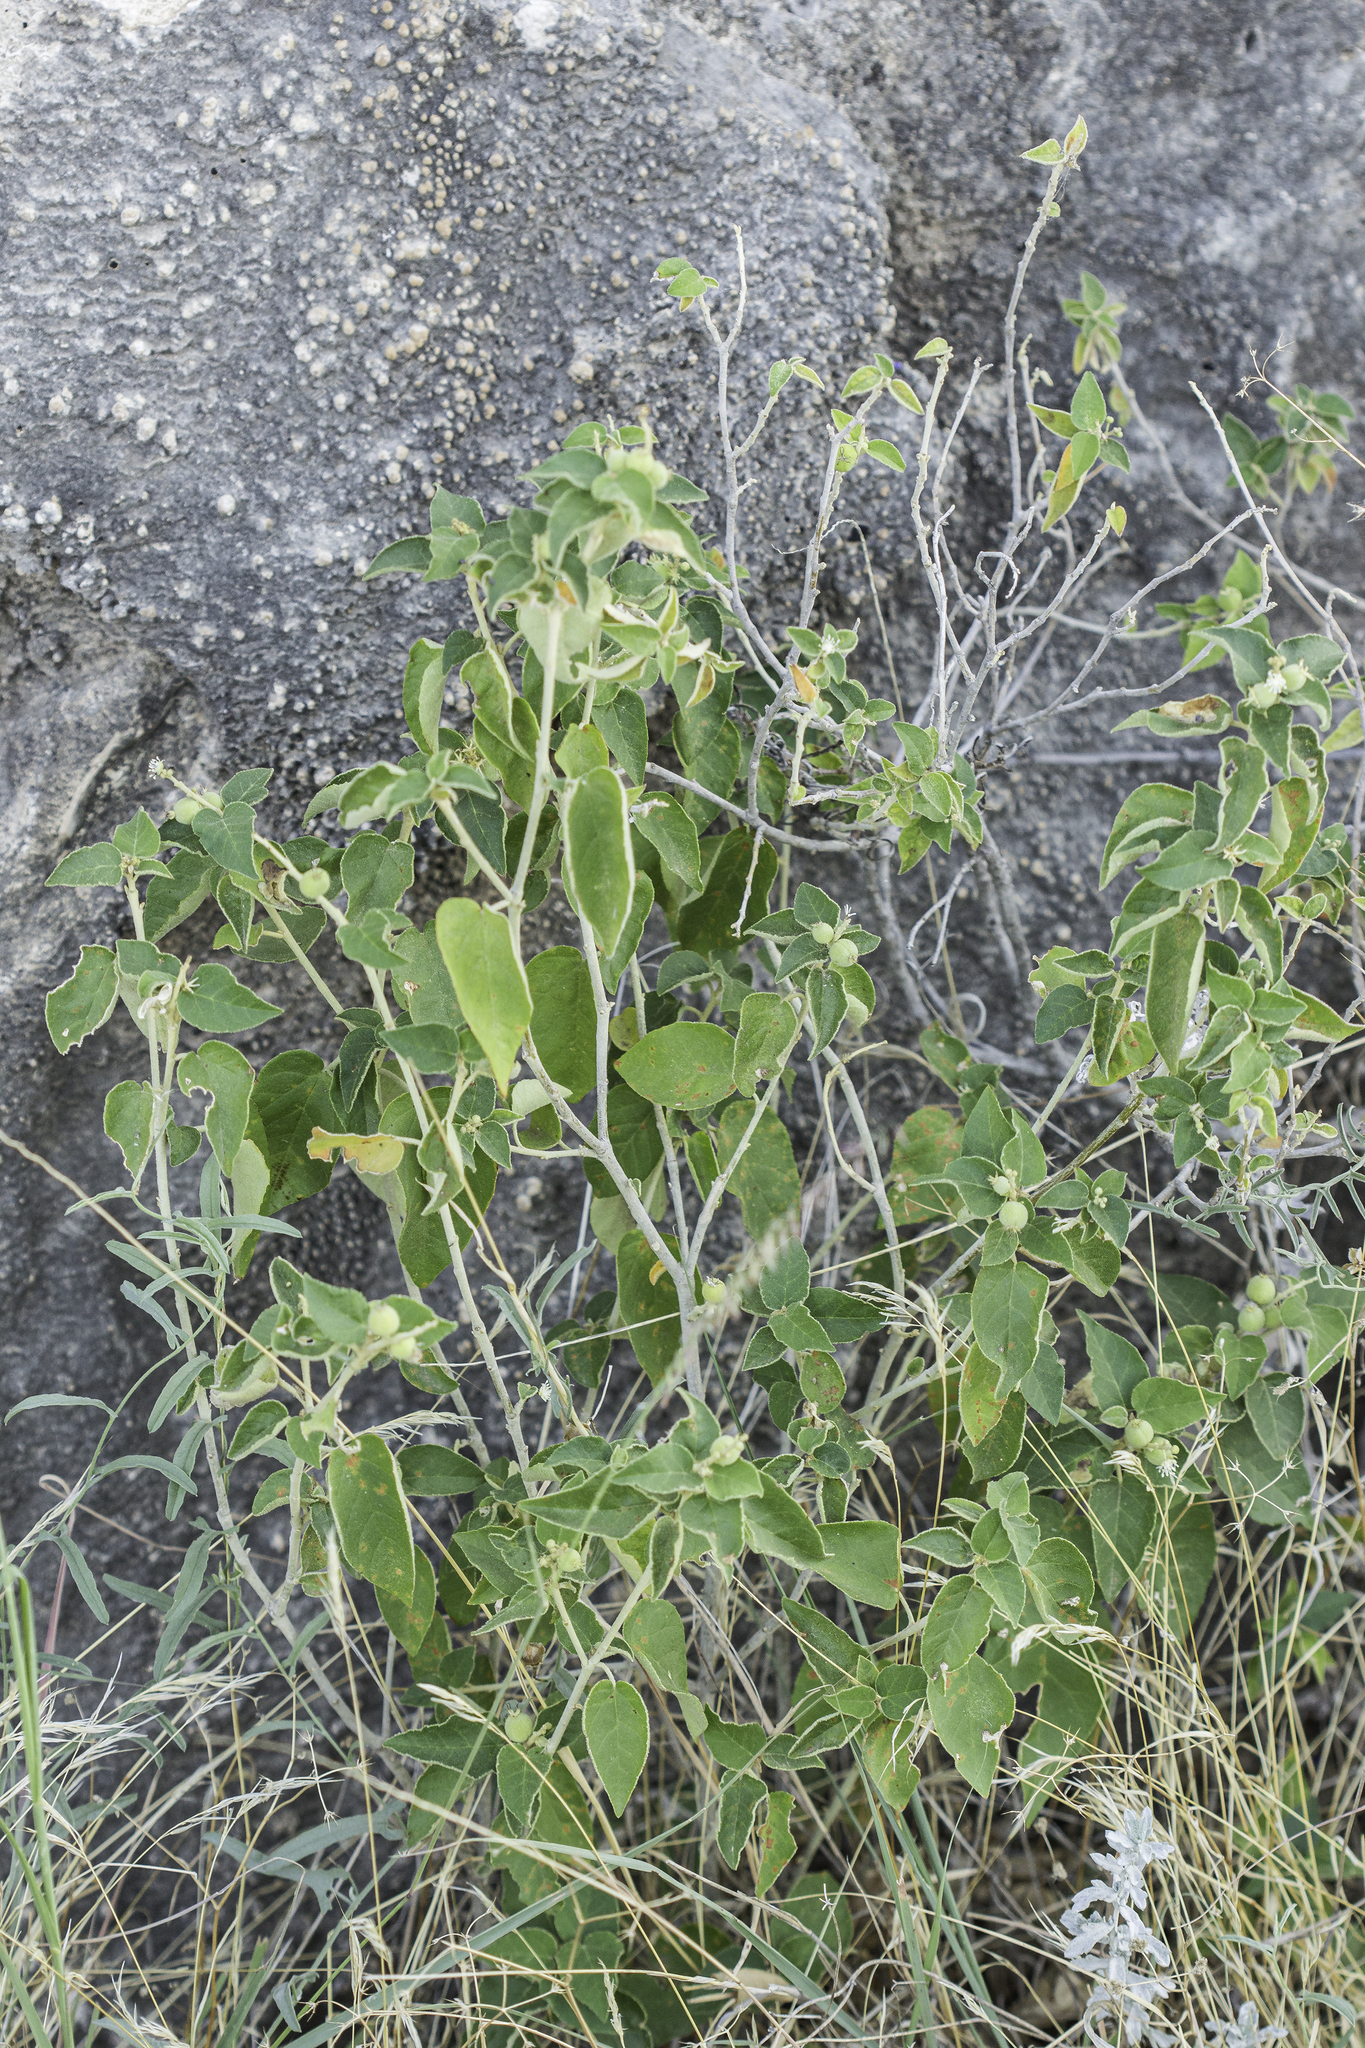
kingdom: Plantae
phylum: Tracheophyta
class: Magnoliopsida
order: Malpighiales
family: Euphorbiaceae
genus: Croton
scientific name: Croton fruticulosus
